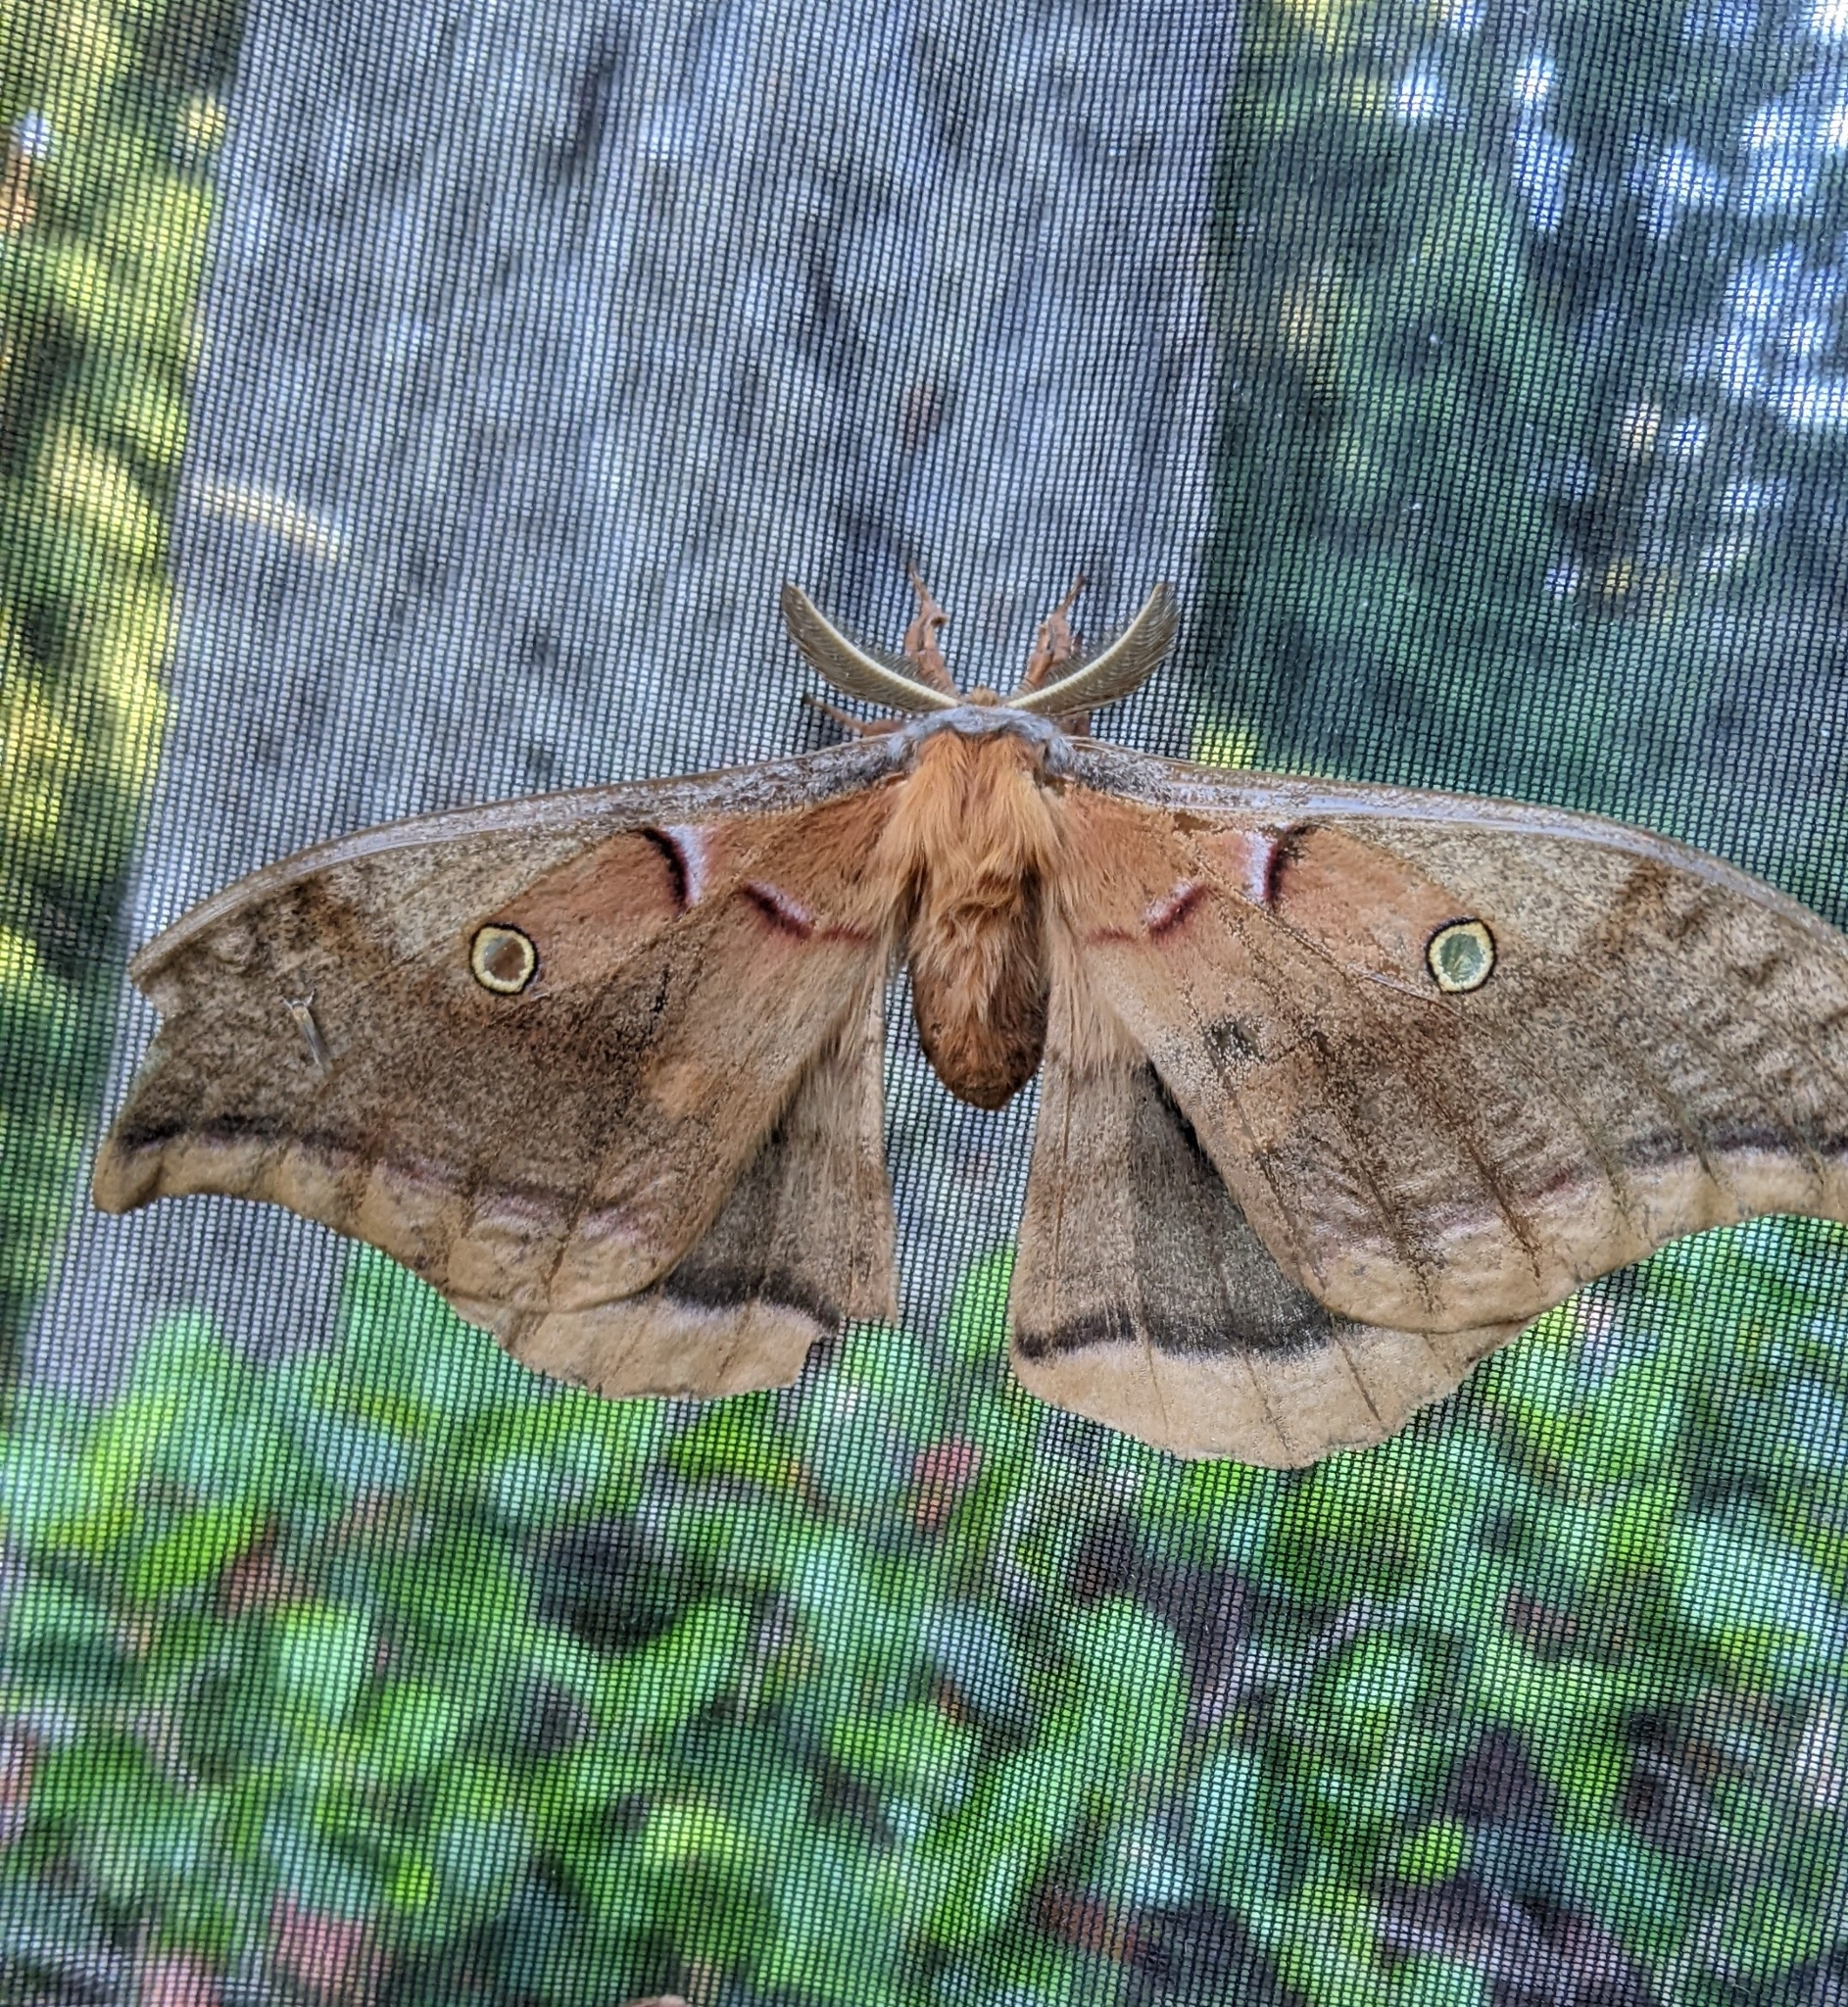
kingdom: Animalia
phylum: Arthropoda
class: Insecta
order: Lepidoptera
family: Saturniidae
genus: Antheraea
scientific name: Antheraea polyphemus
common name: Polyphemus moth
